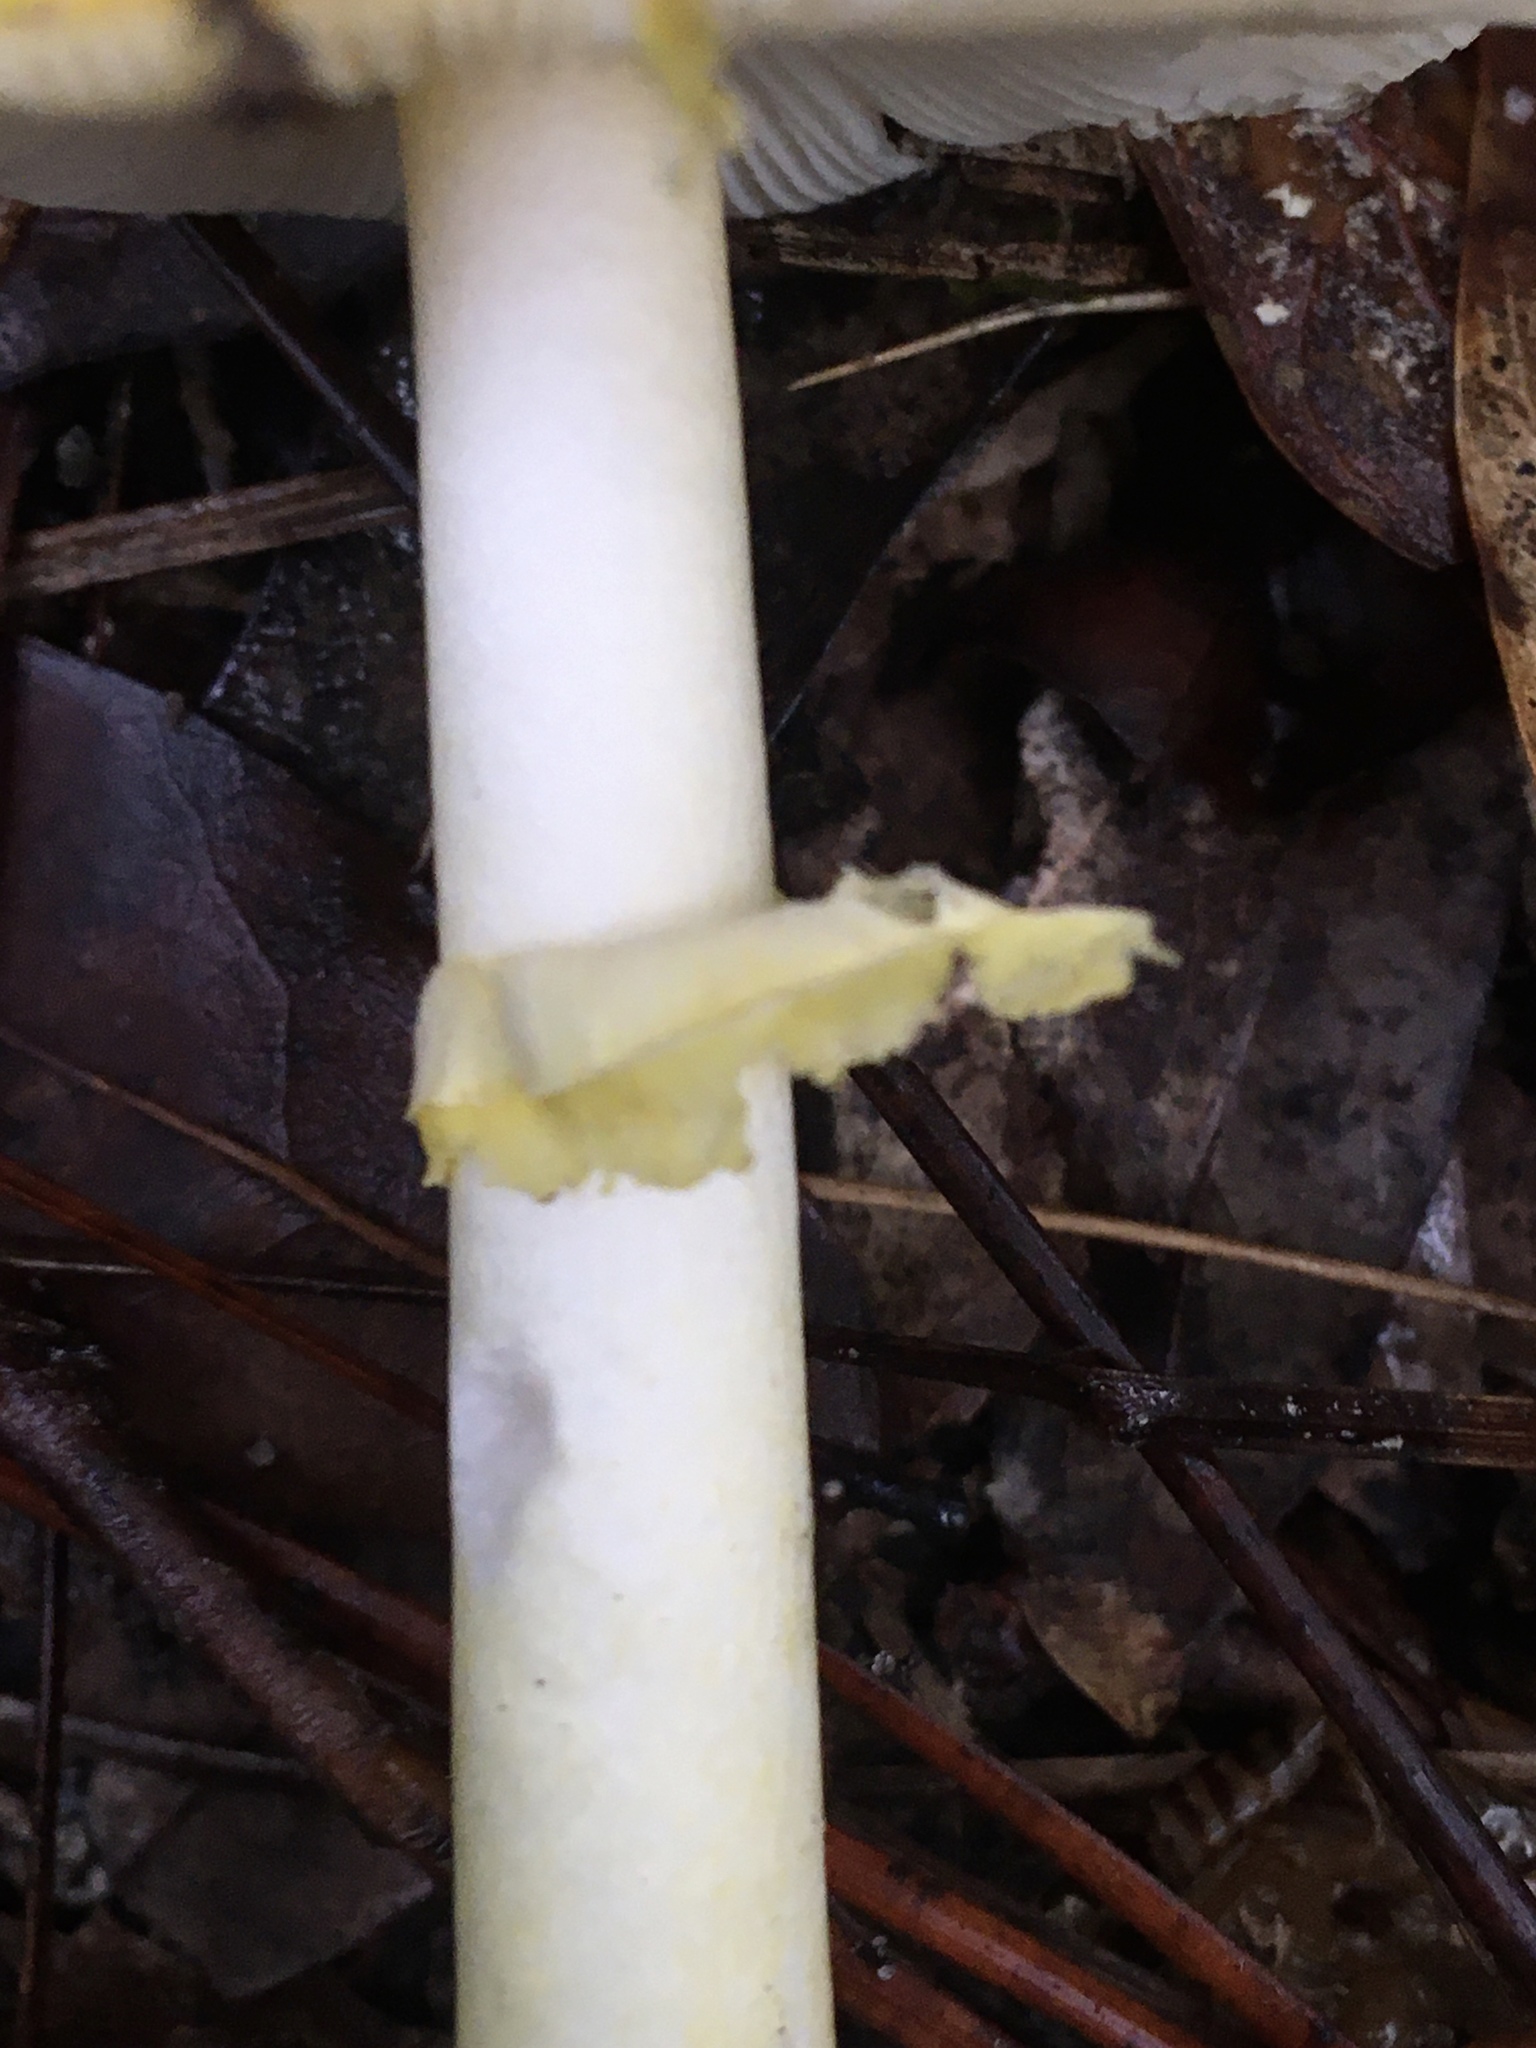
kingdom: Fungi
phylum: Basidiomycota
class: Agaricomycetes
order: Agaricales
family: Amanitaceae
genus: Amanita
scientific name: Amanita flavivolva
